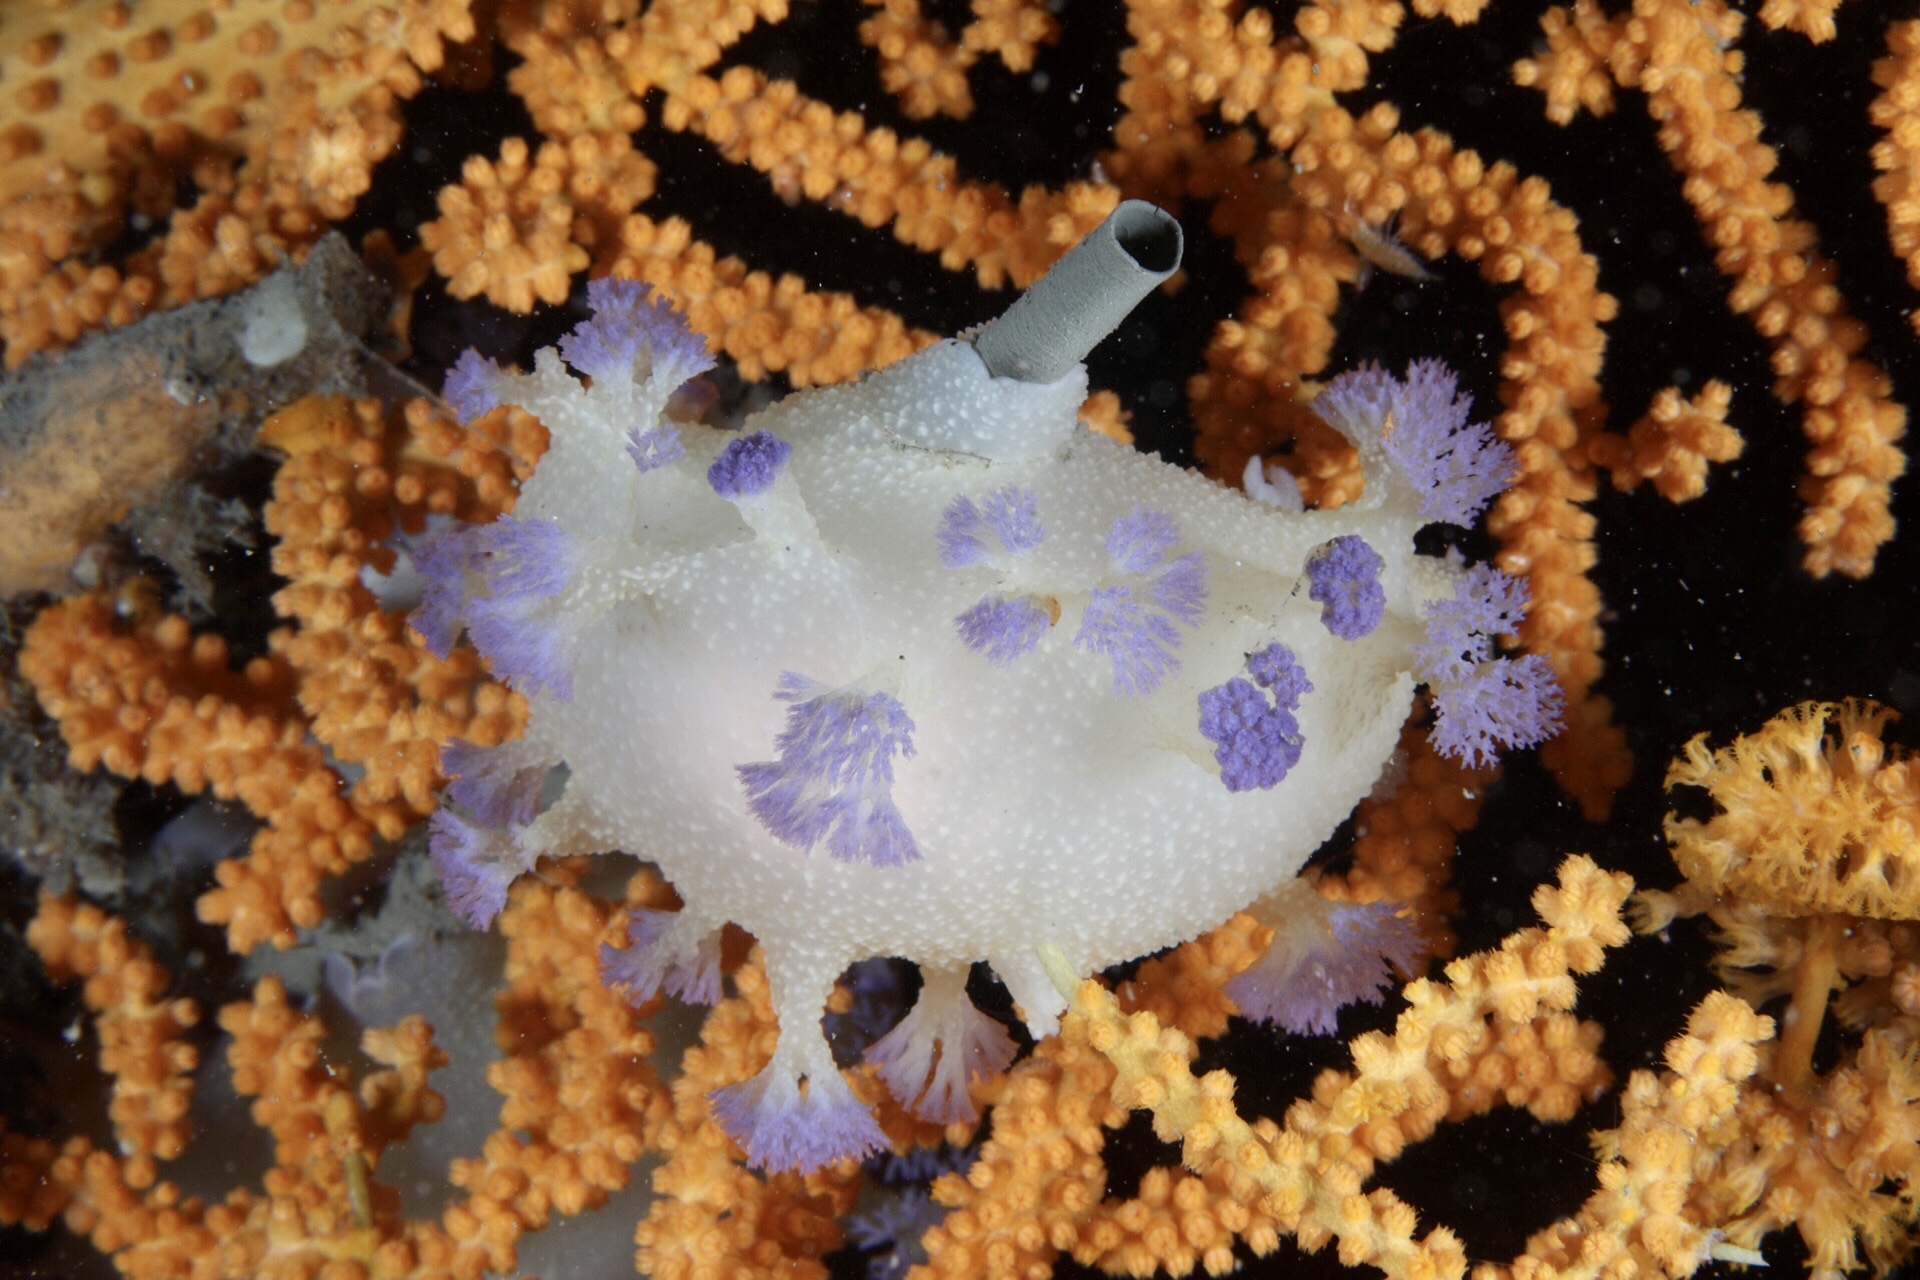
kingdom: Animalia
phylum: Mollusca
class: Gastropoda
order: Nudibranchia
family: Tritoniidae
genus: Tritonia
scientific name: Tritonia griegi
